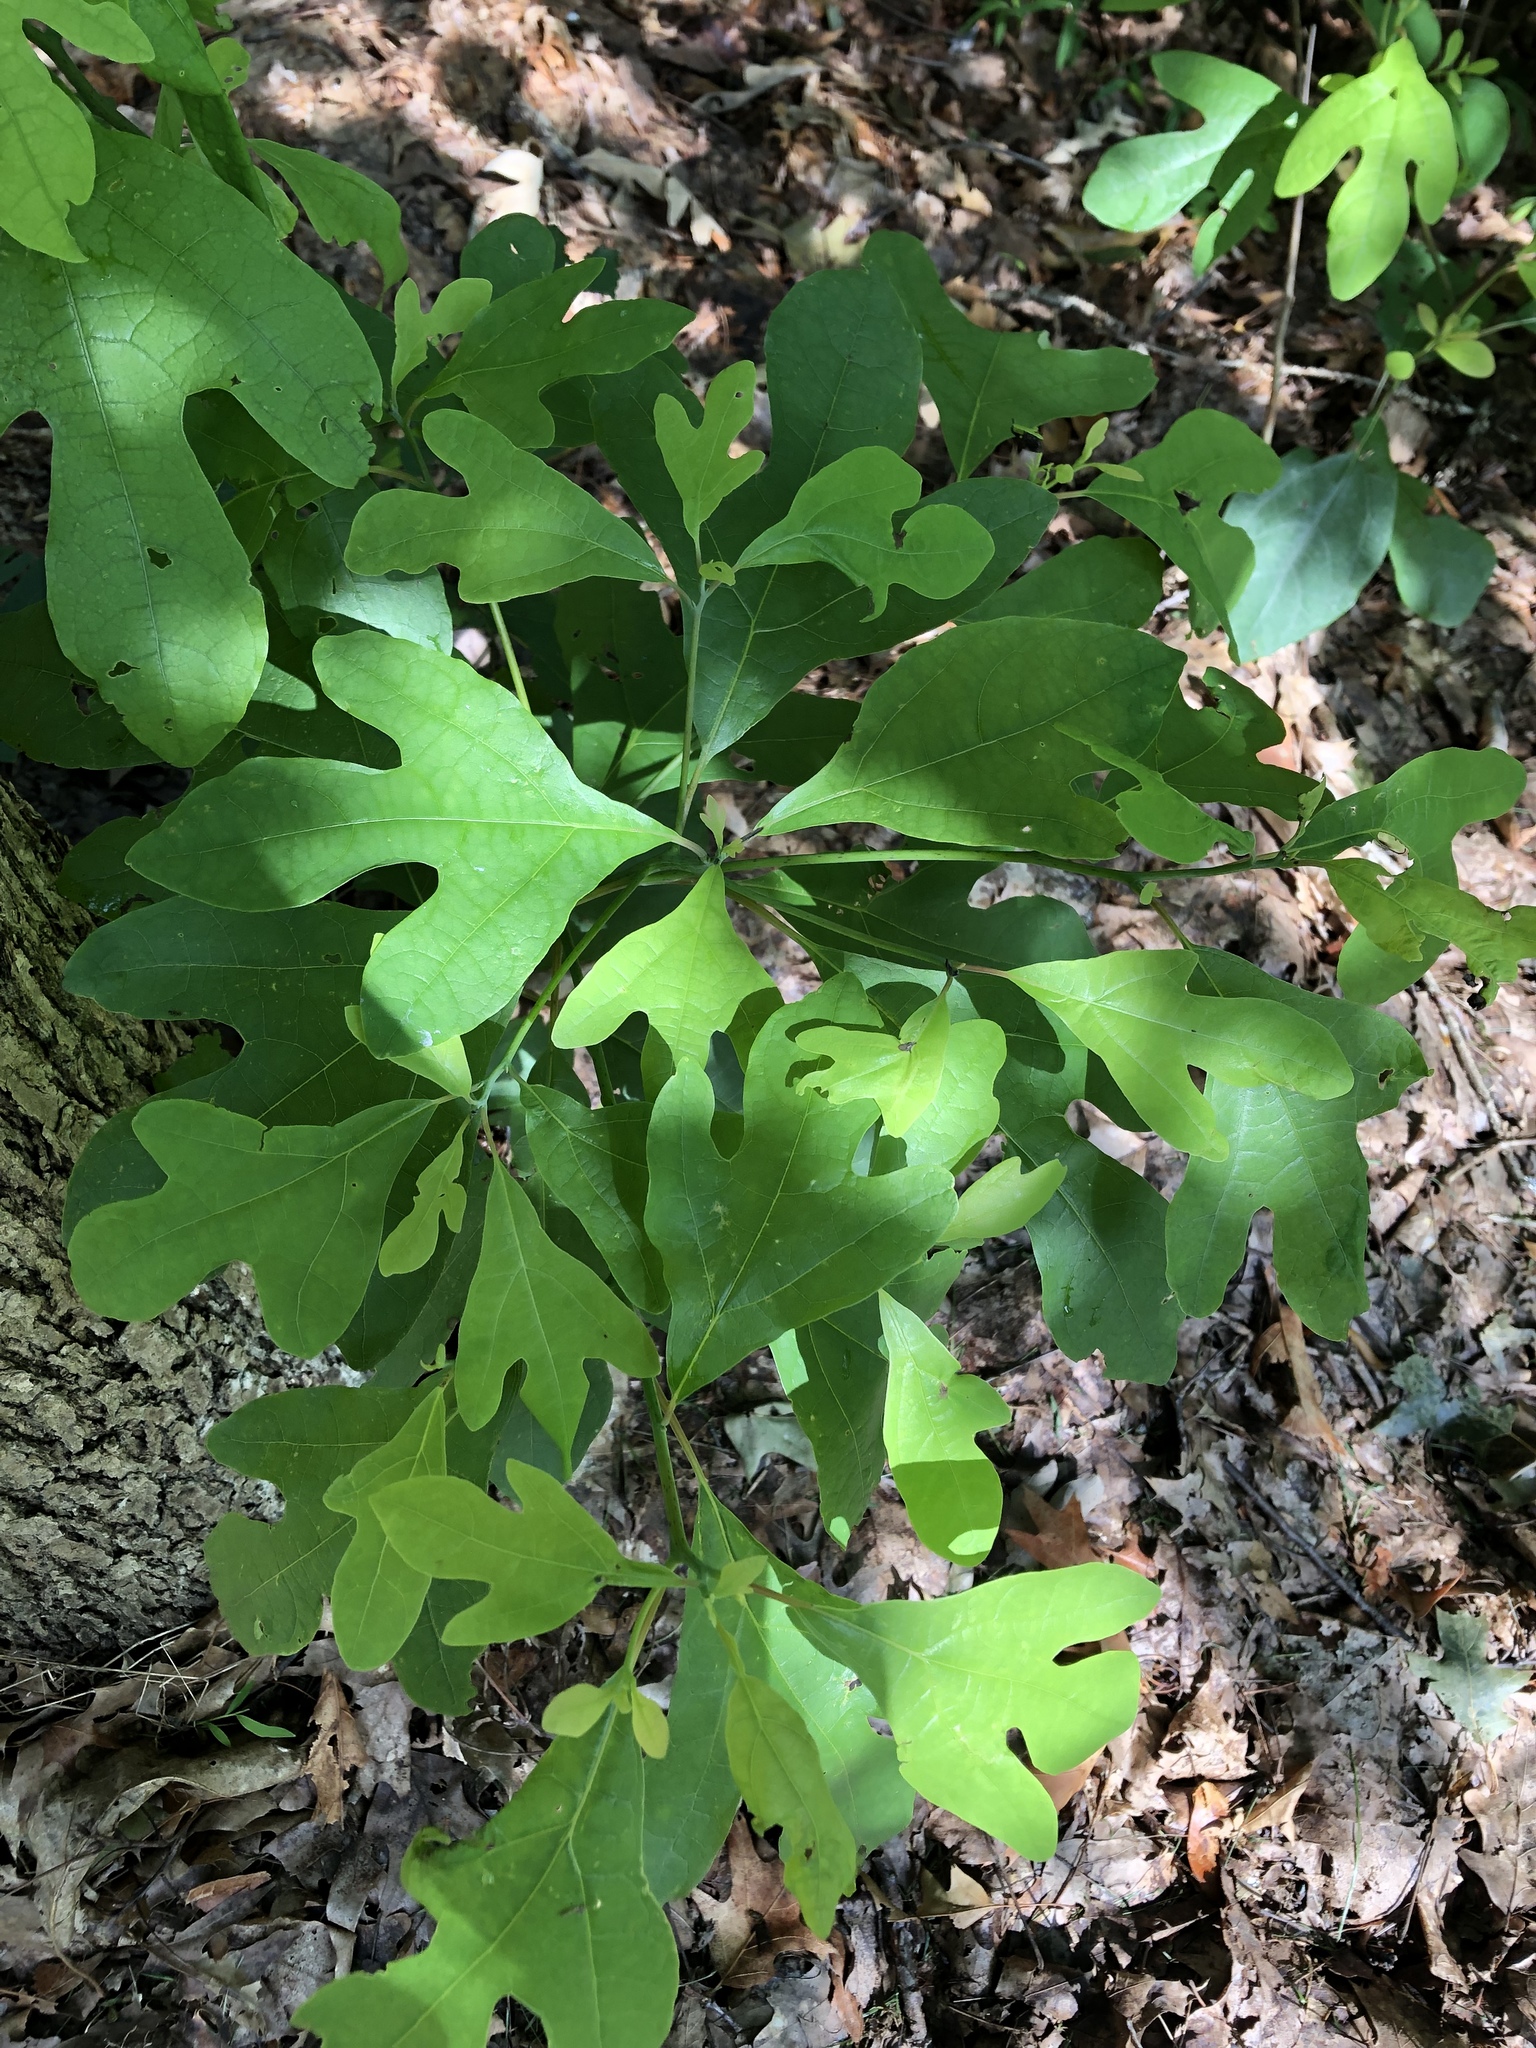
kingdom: Plantae
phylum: Tracheophyta
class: Magnoliopsida
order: Laurales
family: Lauraceae
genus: Sassafras
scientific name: Sassafras albidum
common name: Sassafras
